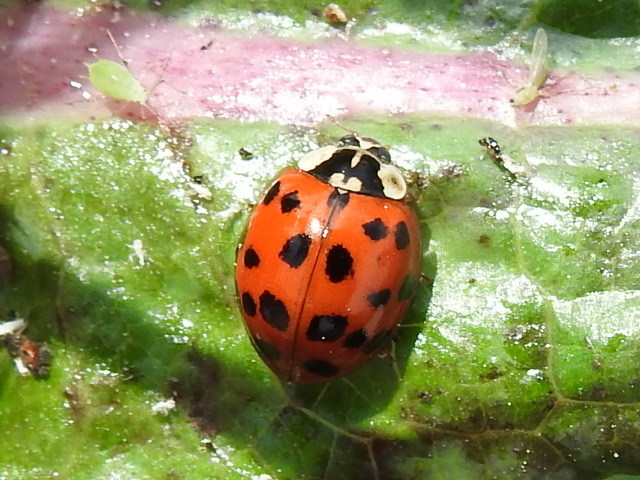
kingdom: Animalia
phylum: Arthropoda
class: Insecta
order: Coleoptera
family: Coccinellidae
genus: Harmonia
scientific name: Harmonia axyridis
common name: Harlequin ladybird
